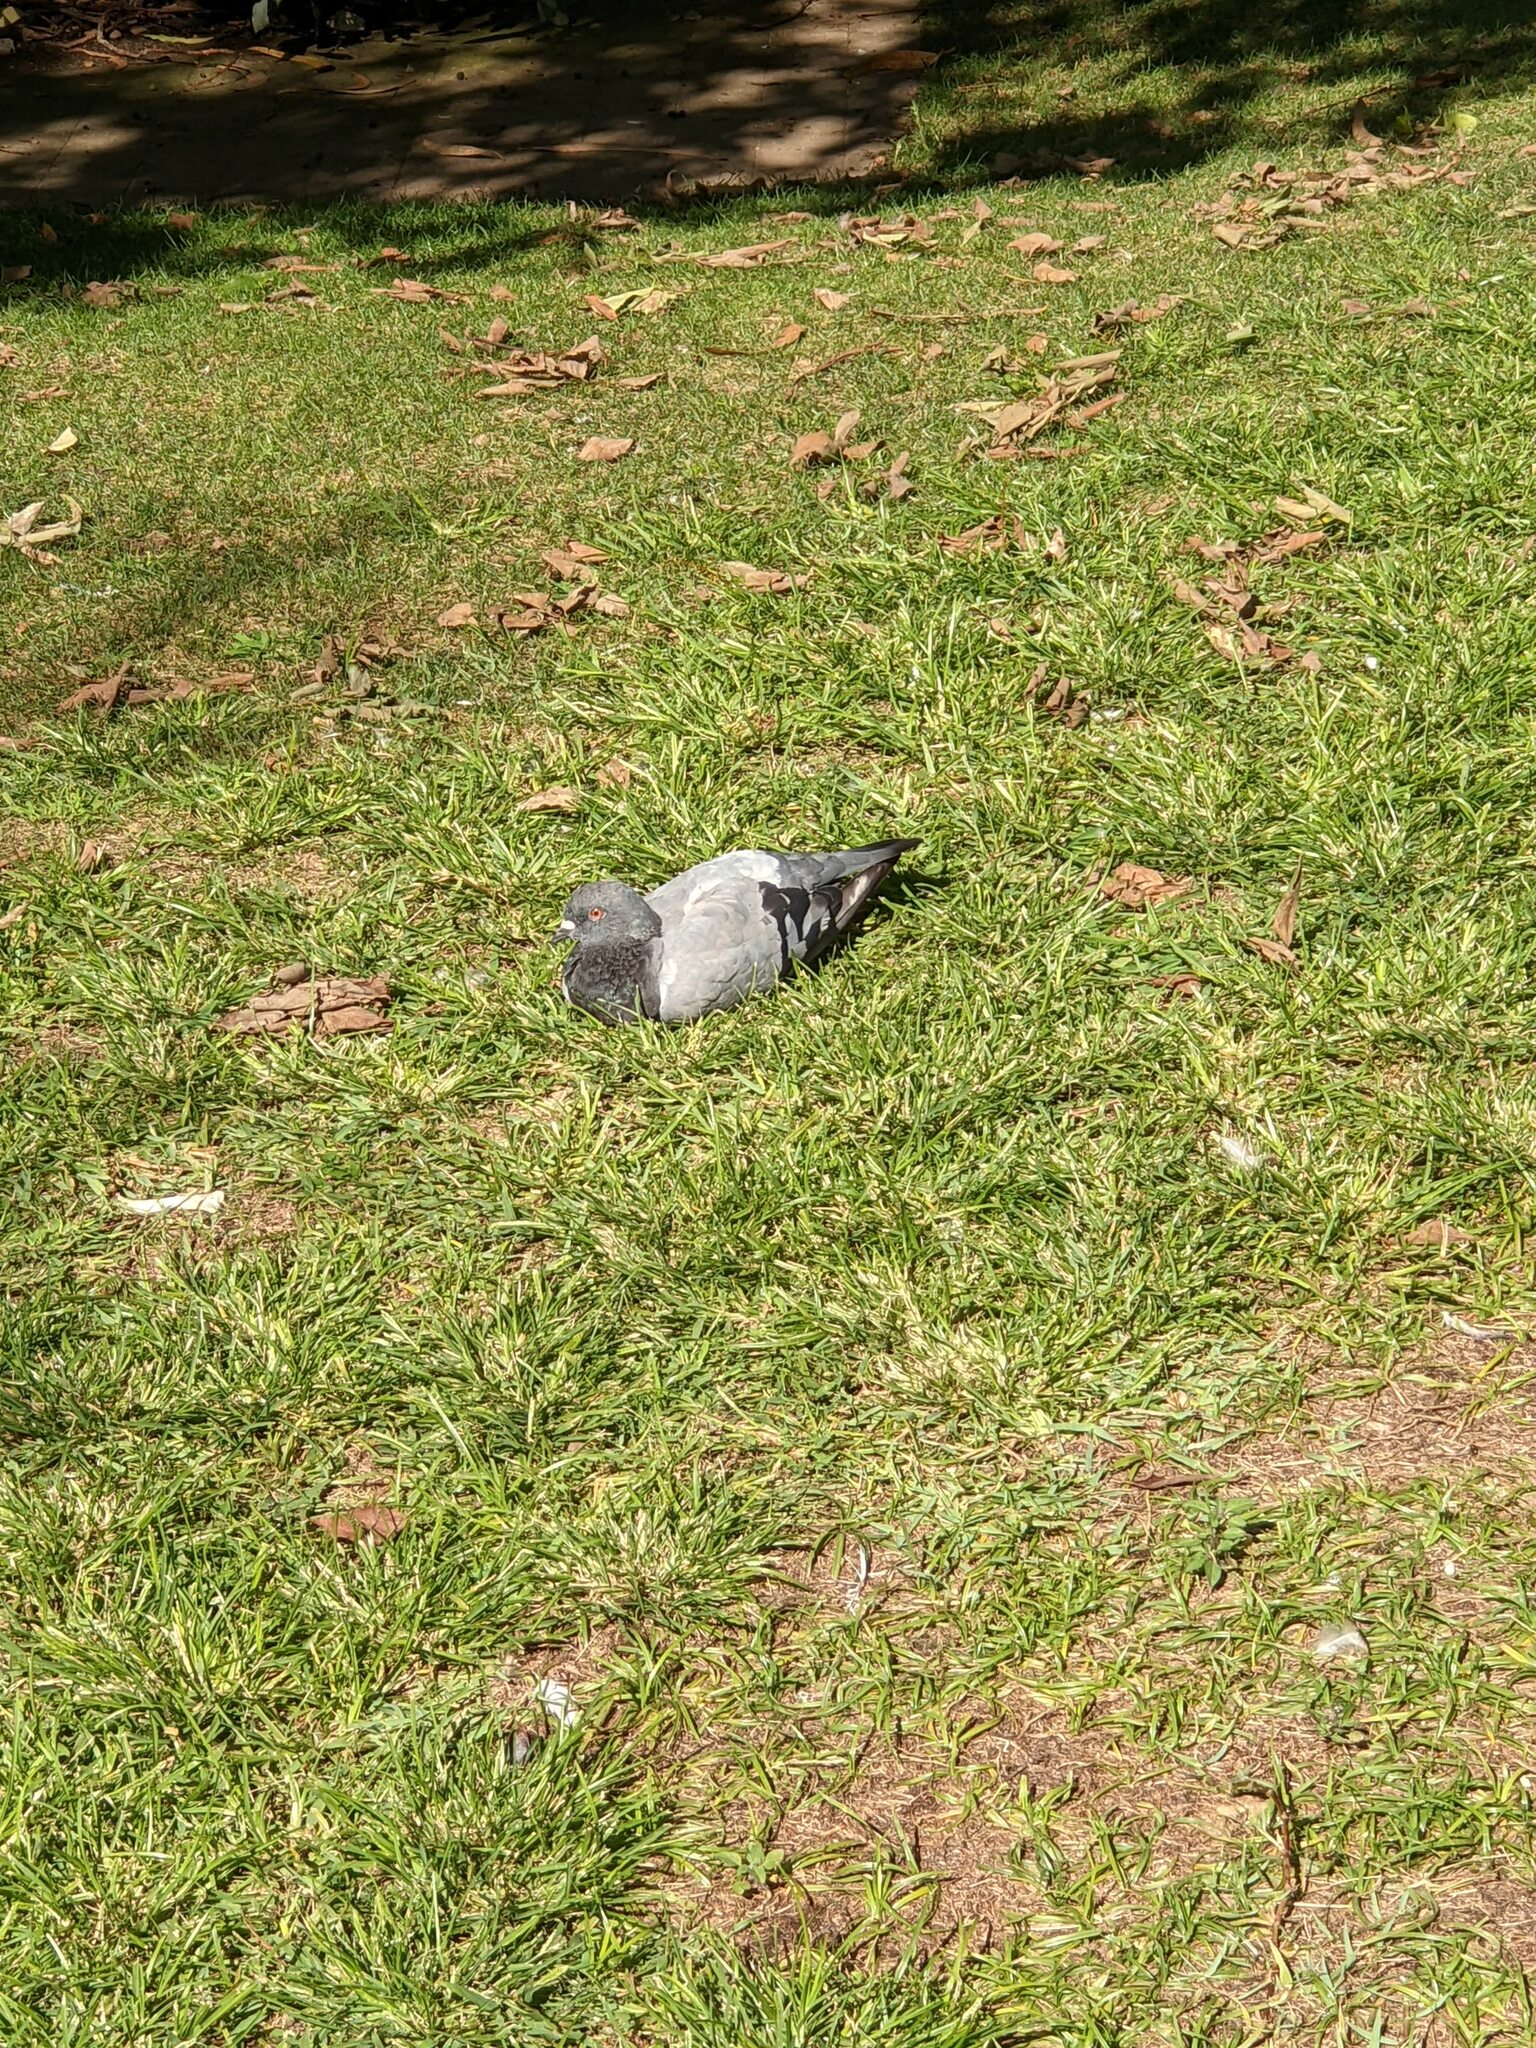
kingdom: Animalia
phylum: Chordata
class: Aves
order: Columbiformes
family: Columbidae
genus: Columba
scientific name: Columba livia
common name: Rock pigeon
